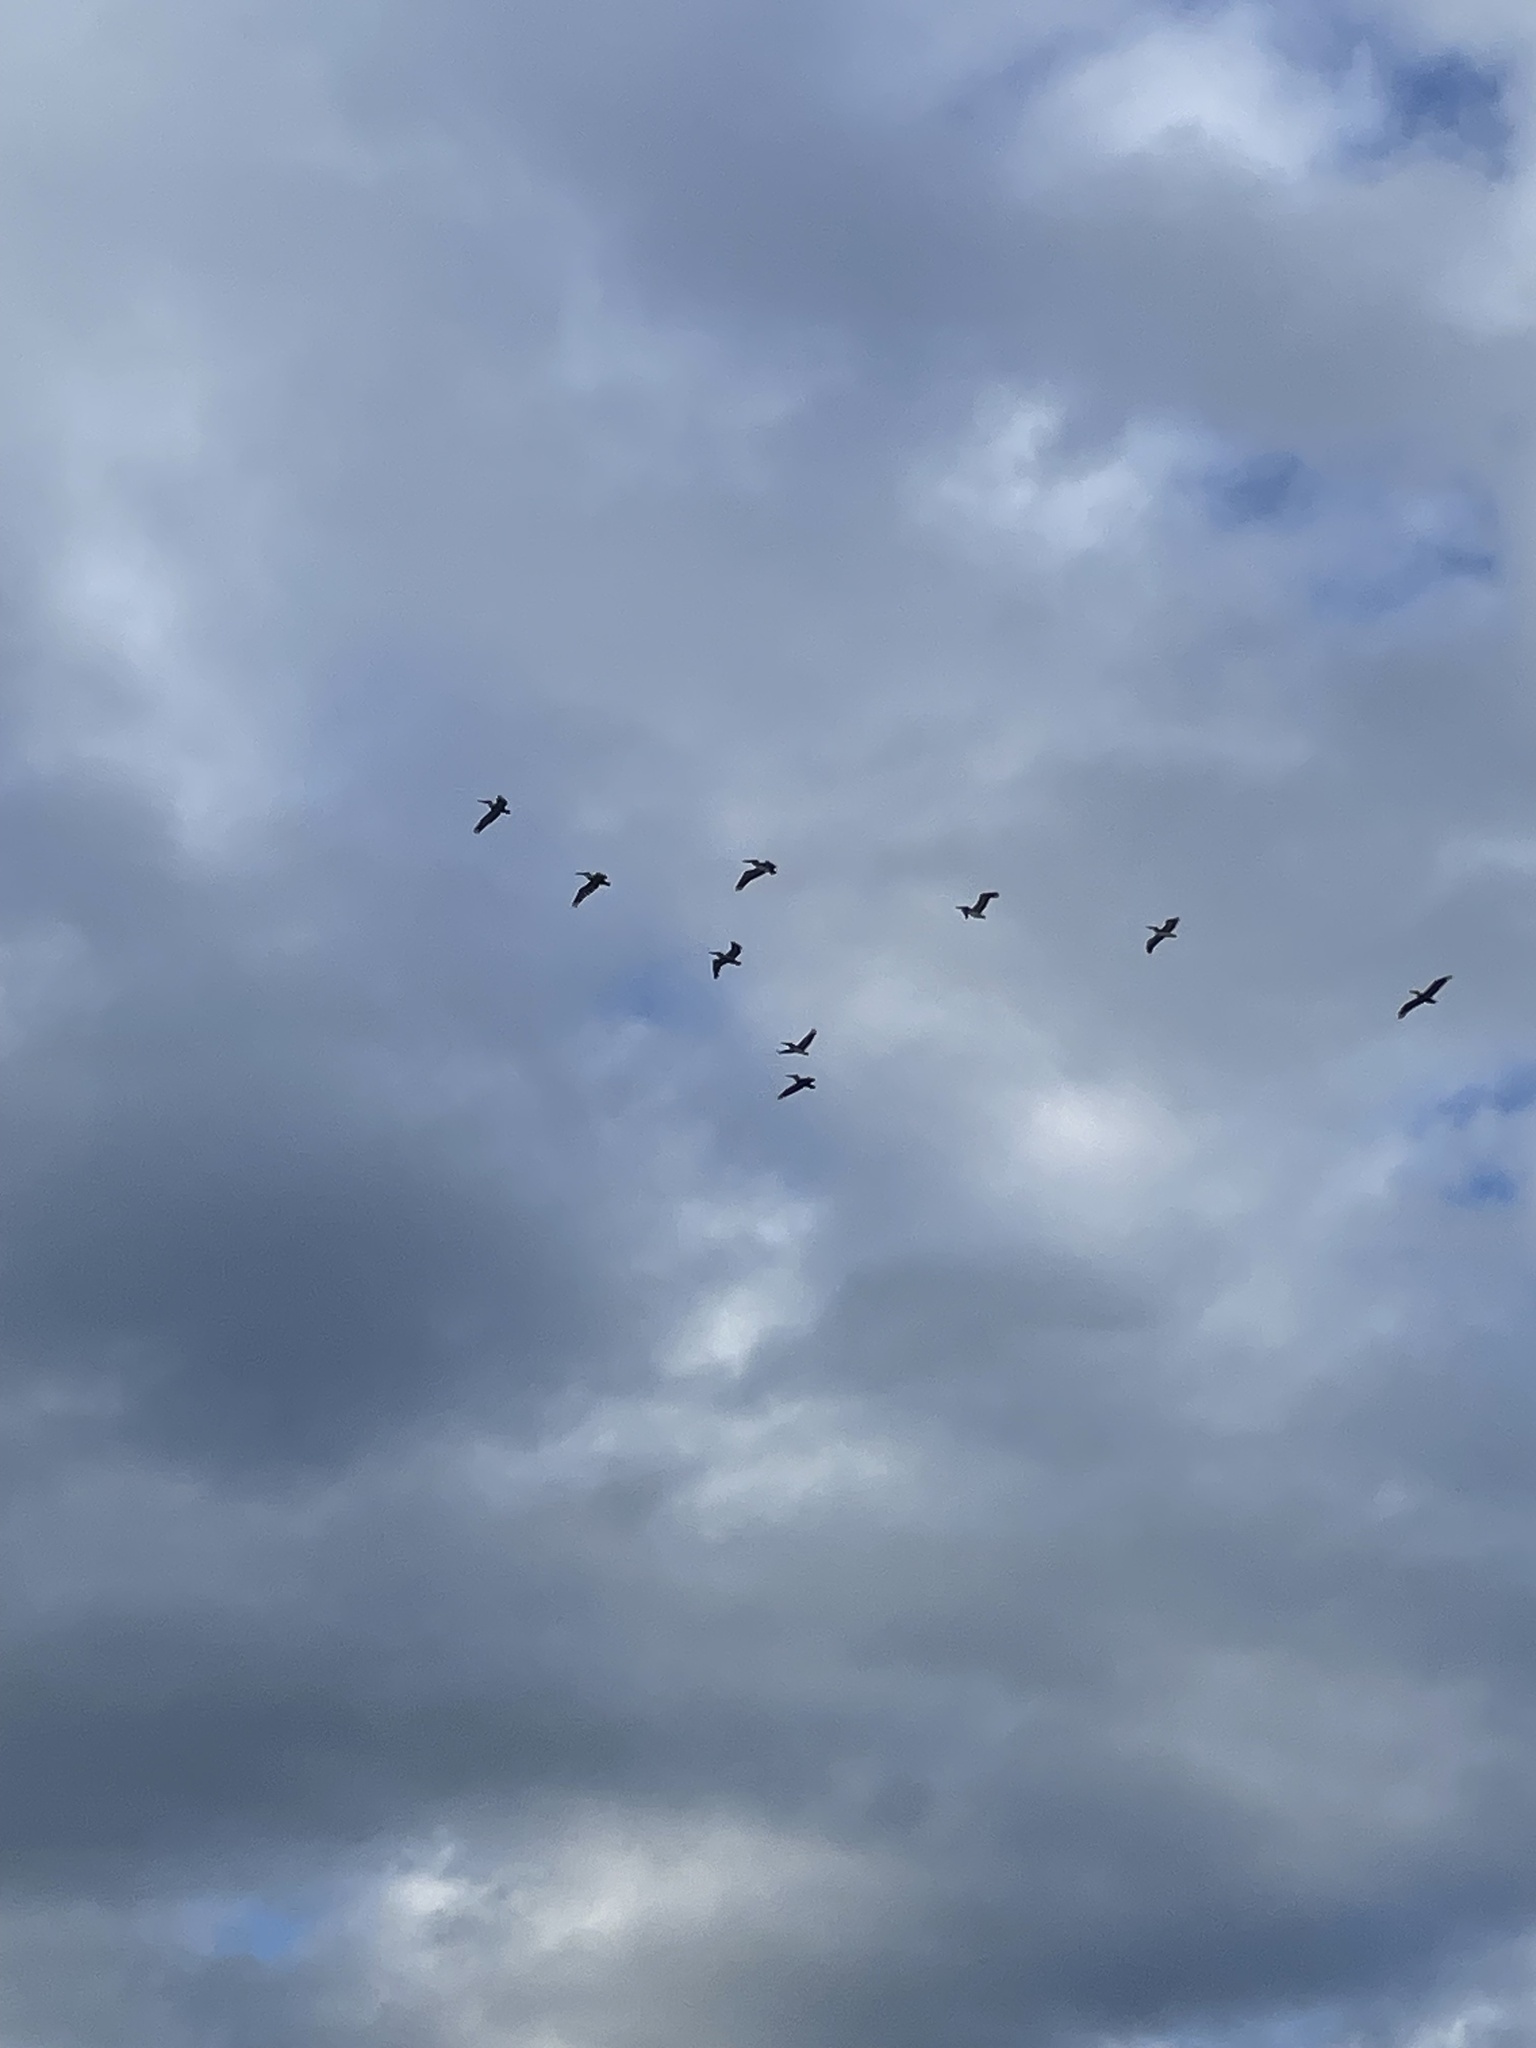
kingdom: Animalia
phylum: Chordata
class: Aves
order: Pelecaniformes
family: Pelecanidae
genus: Pelecanus
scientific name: Pelecanus occidentalis
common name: Brown pelican
